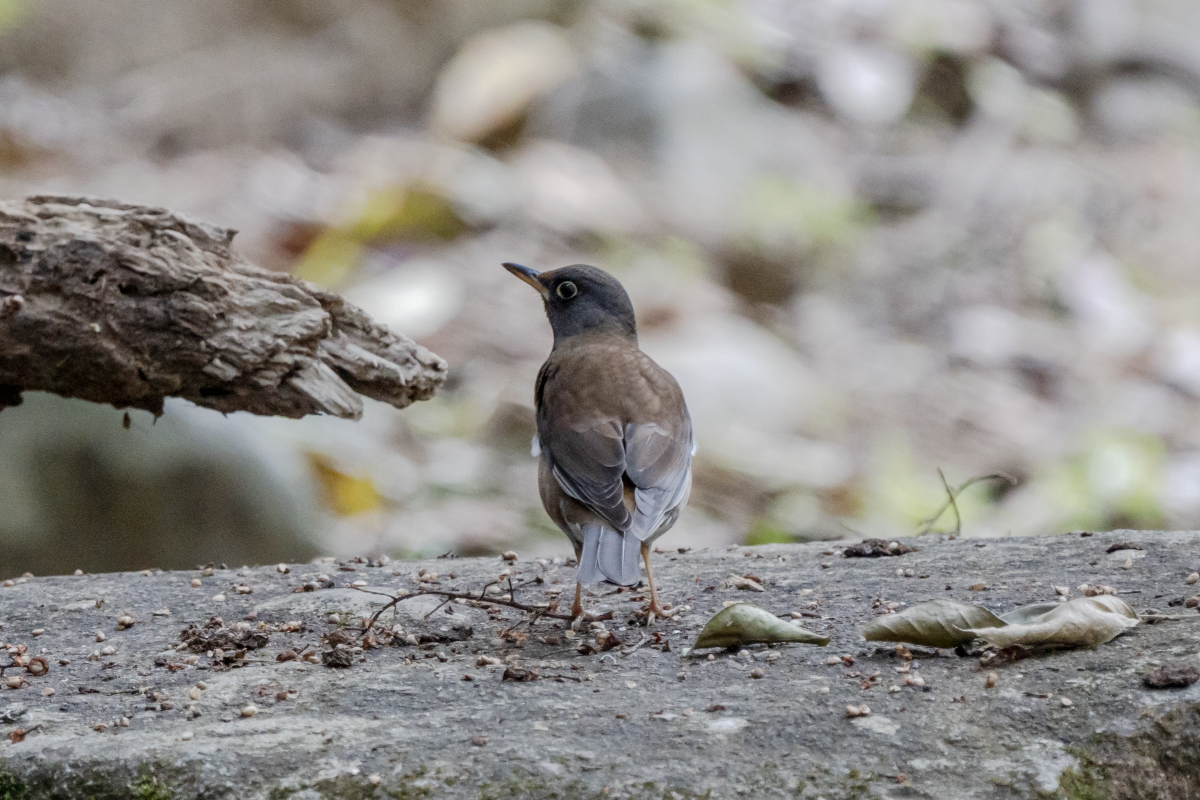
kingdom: Animalia
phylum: Chordata
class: Aves
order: Passeriformes
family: Turdidae
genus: Turdus
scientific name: Turdus pallidus
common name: Pale thrush
